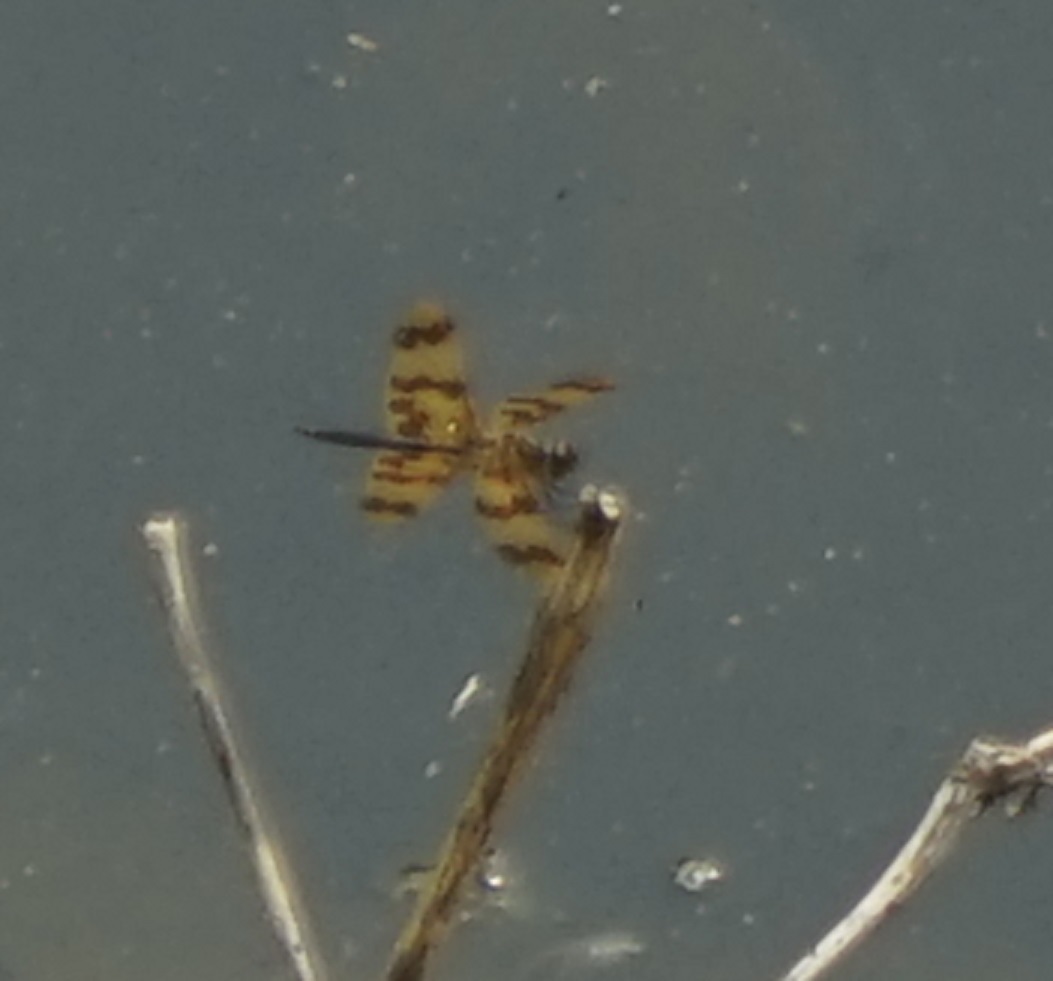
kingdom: Animalia
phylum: Arthropoda
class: Insecta
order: Odonata
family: Libellulidae
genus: Rhyothemis
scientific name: Rhyothemis graphiptera
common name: Graphic flutterer
